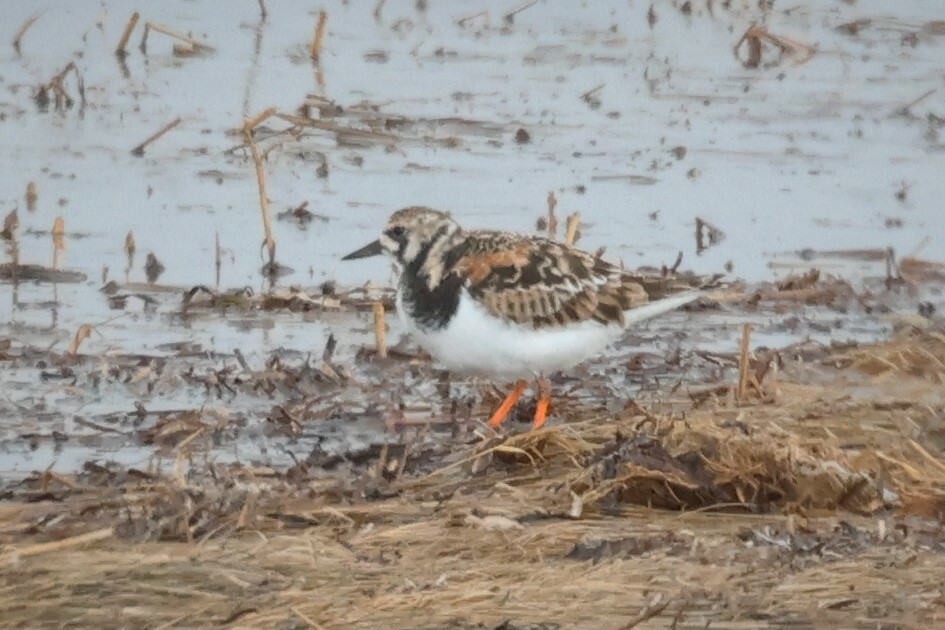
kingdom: Animalia
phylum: Chordata
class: Aves
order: Charadriiformes
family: Scolopacidae
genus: Arenaria
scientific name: Arenaria interpres
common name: Ruddy turnstone
